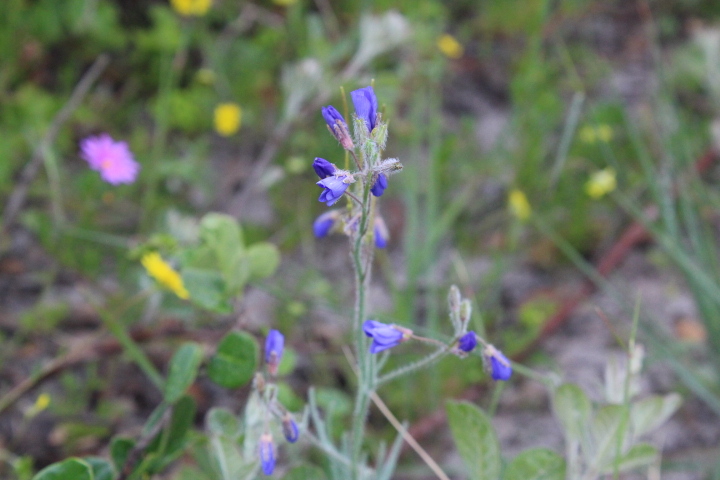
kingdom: Plantae
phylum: Tracheophyta
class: Magnoliopsida
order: Brassicales
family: Brassicaceae
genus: Heliophila
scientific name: Heliophila africana
